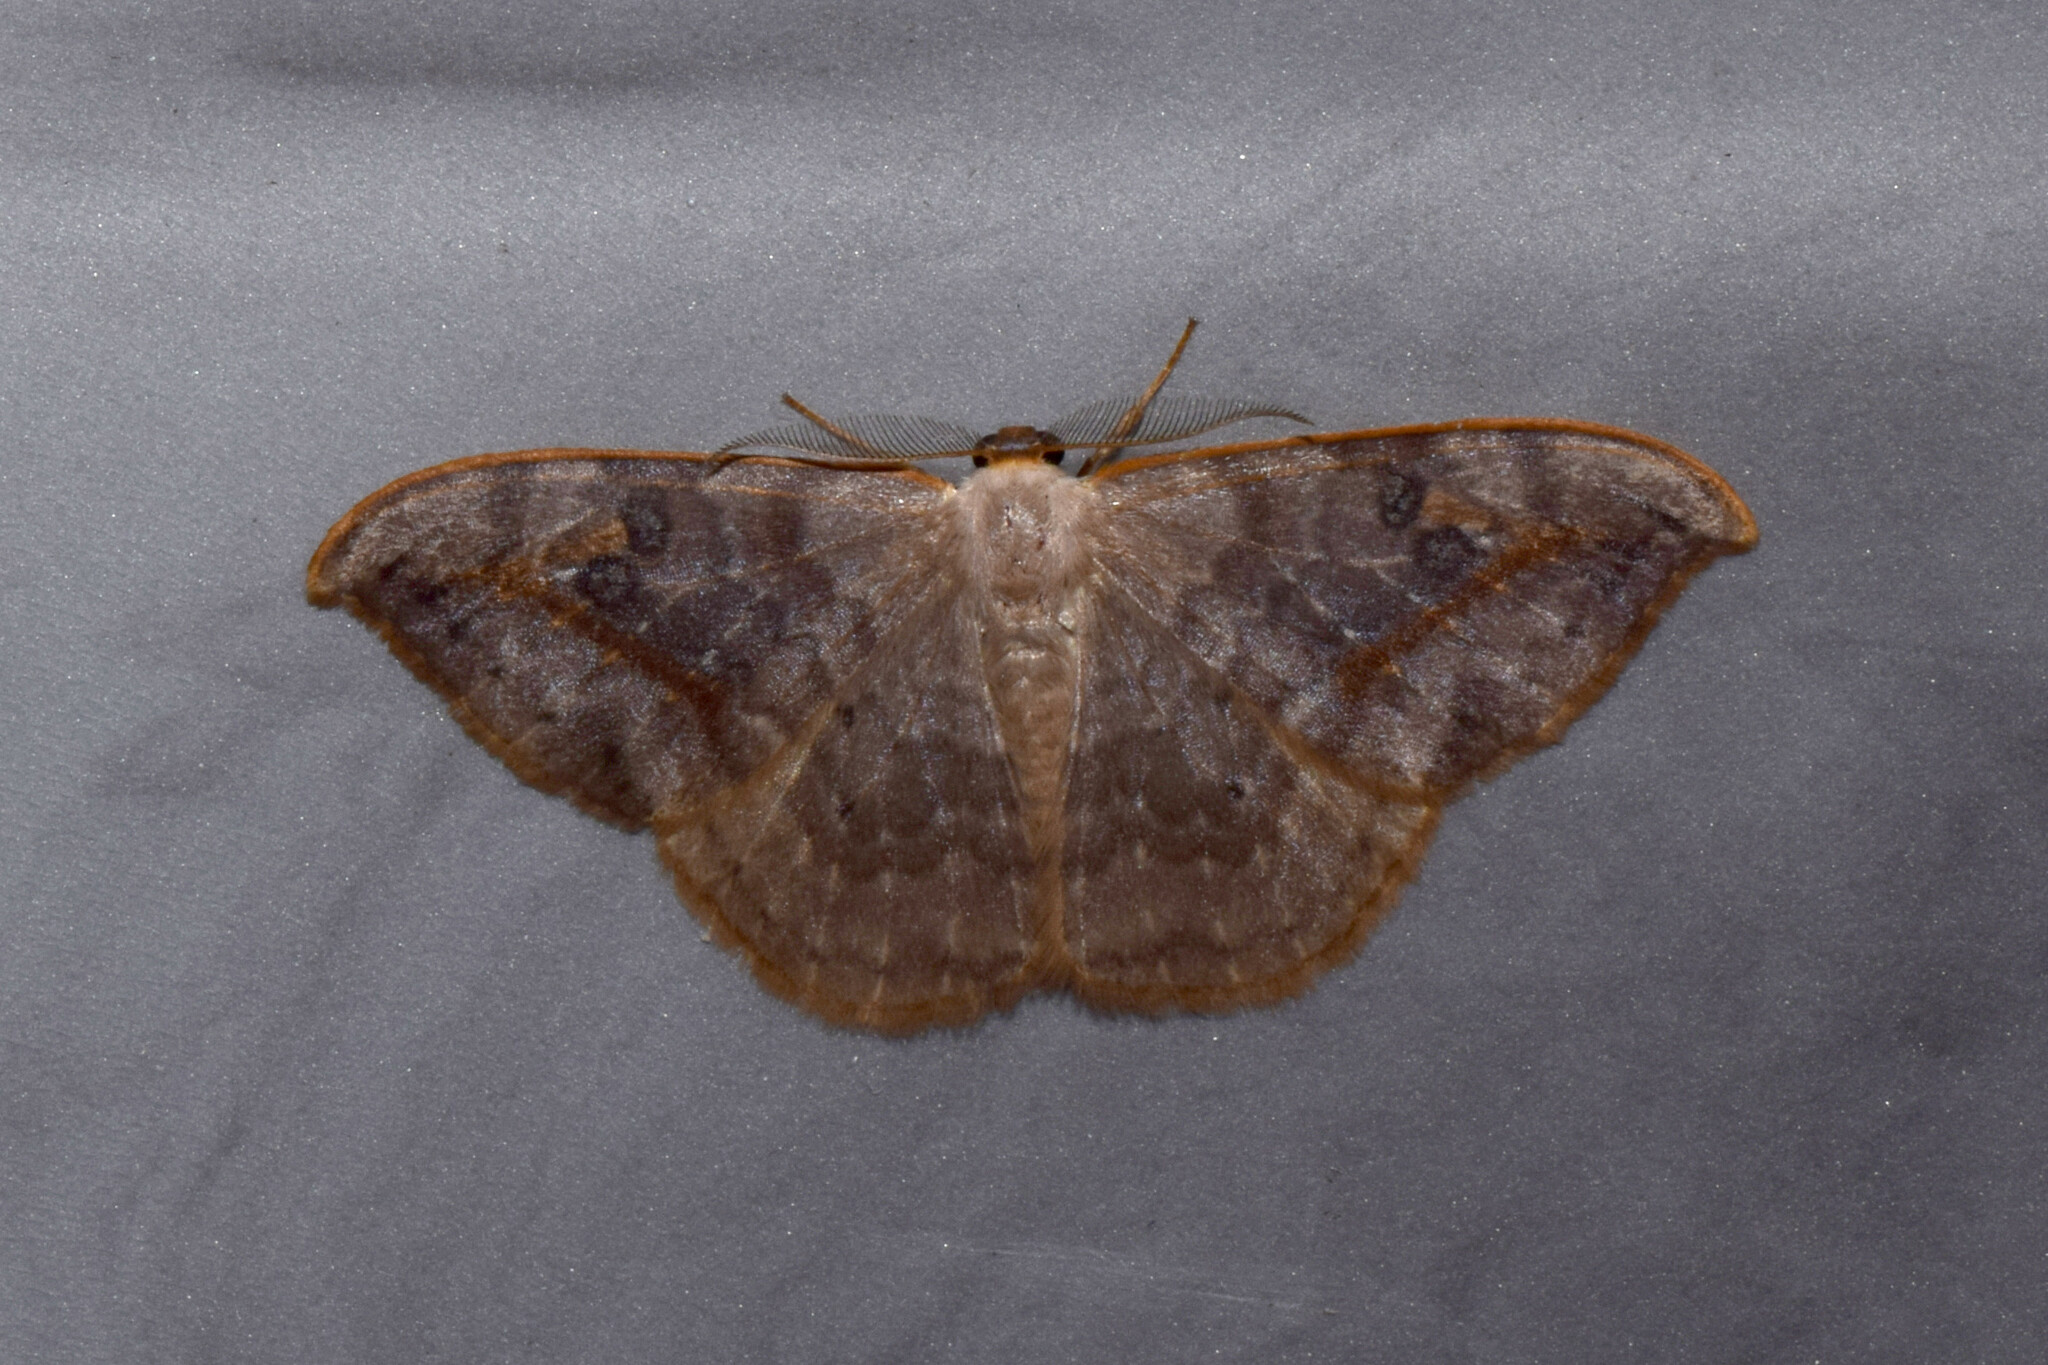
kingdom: Animalia
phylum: Arthropoda
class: Insecta
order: Lepidoptera
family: Drepanidae
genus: Drepana
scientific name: Drepana rufofasciata
